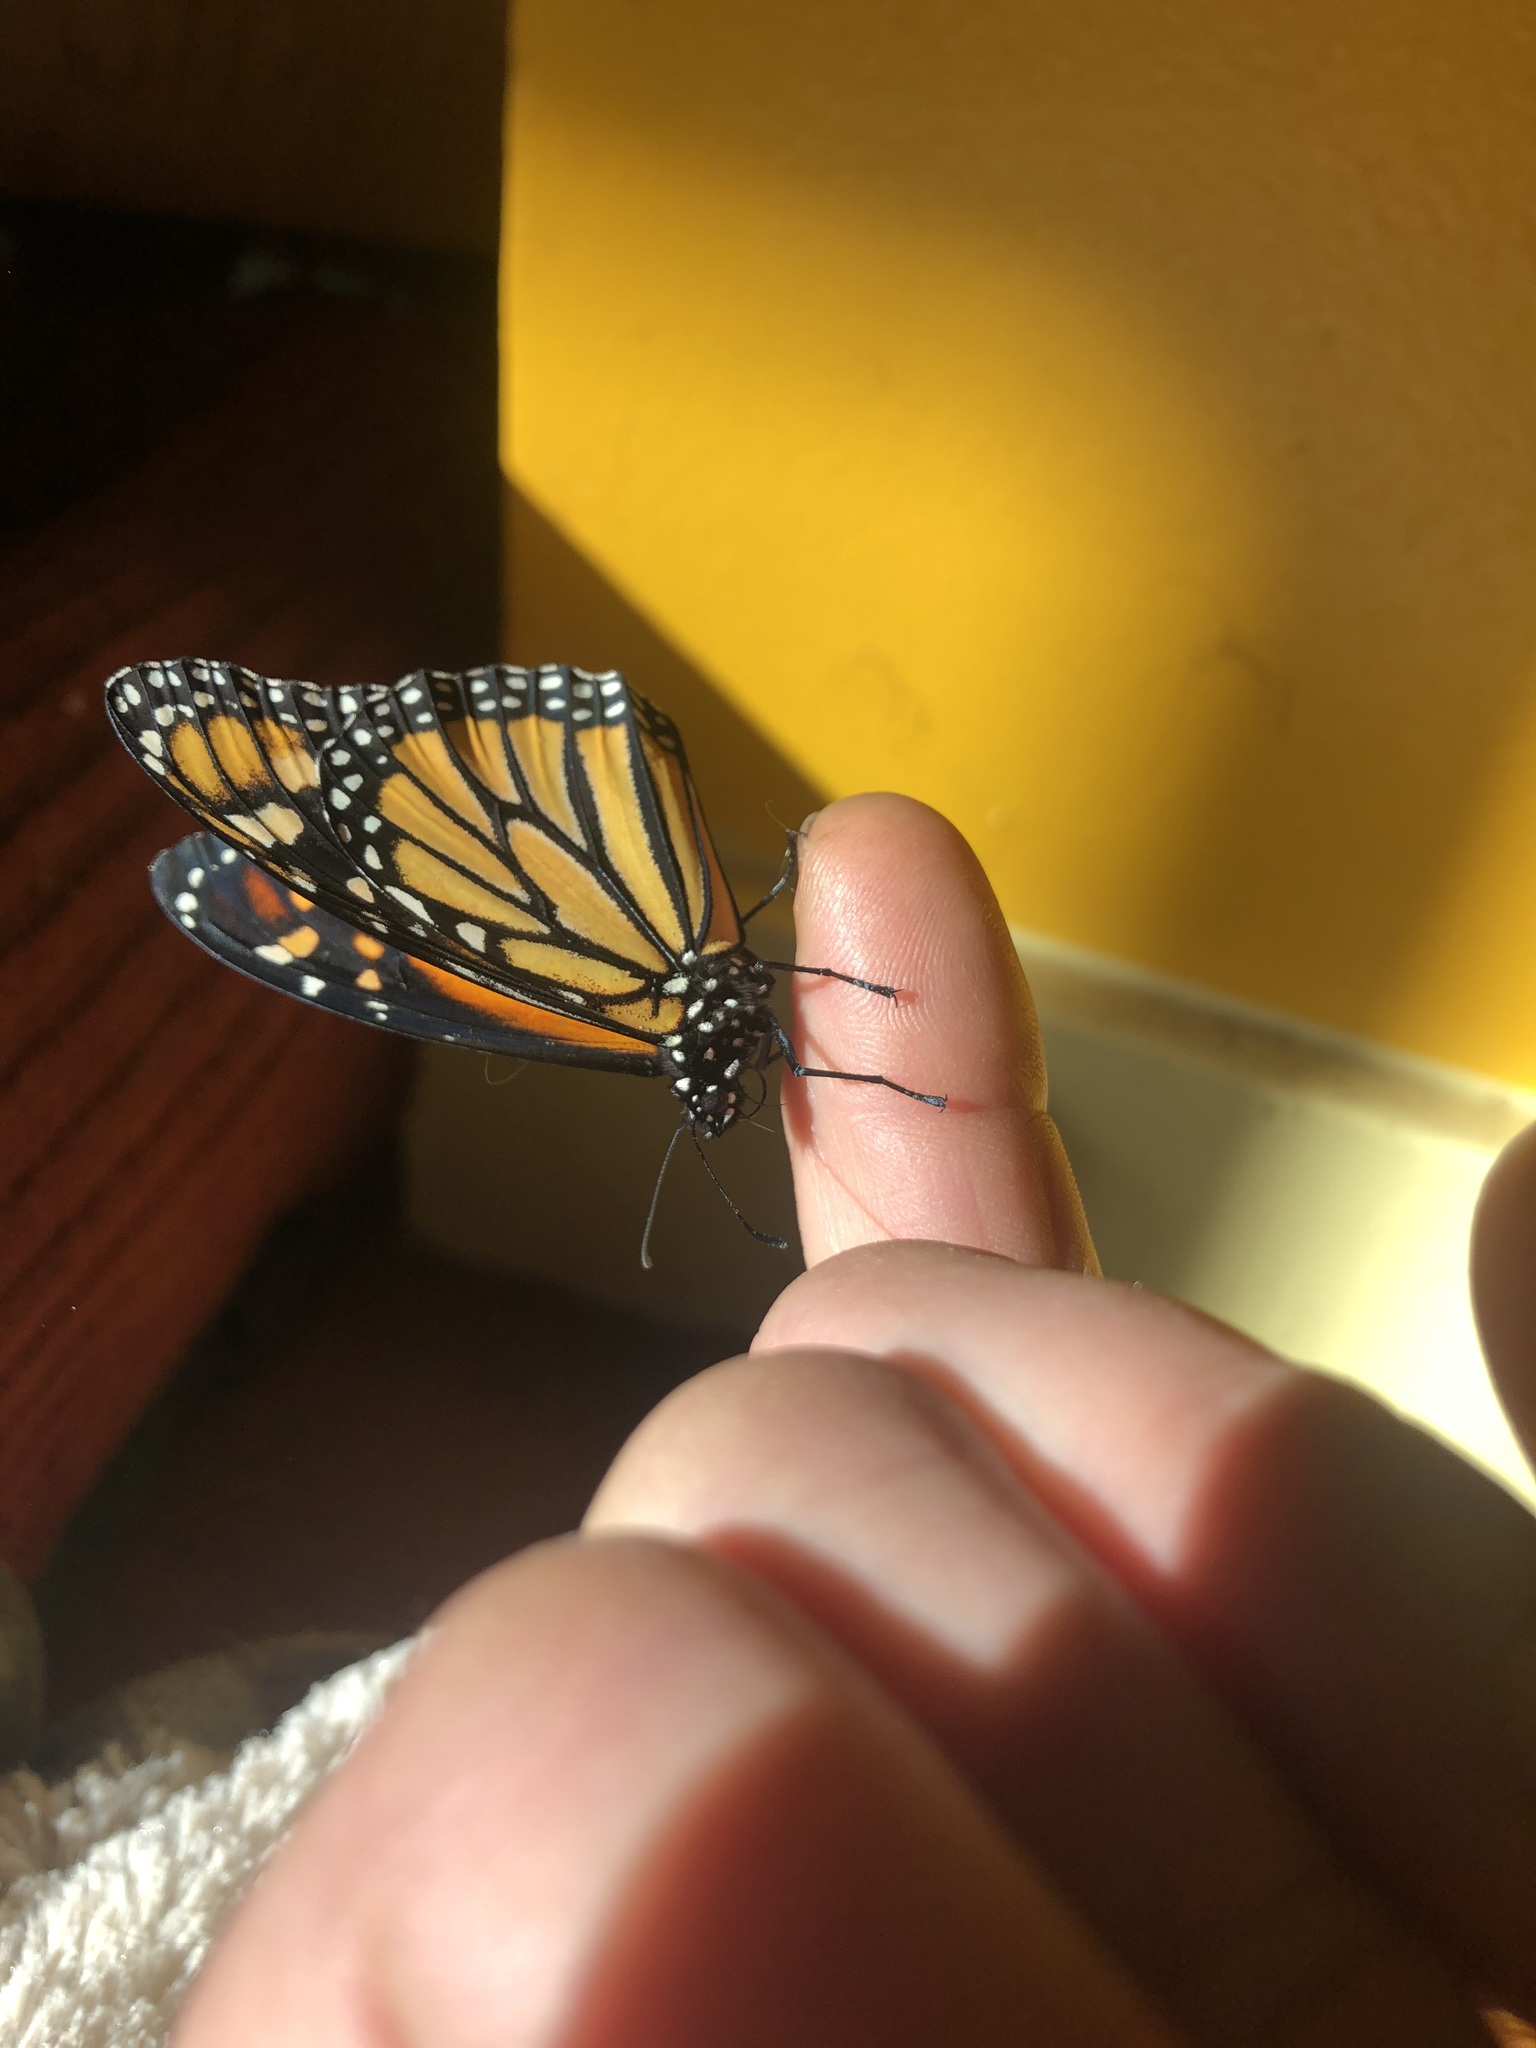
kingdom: Animalia
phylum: Arthropoda
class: Insecta
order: Lepidoptera
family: Nymphalidae
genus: Danaus
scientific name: Danaus plexippus
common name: Monarch
